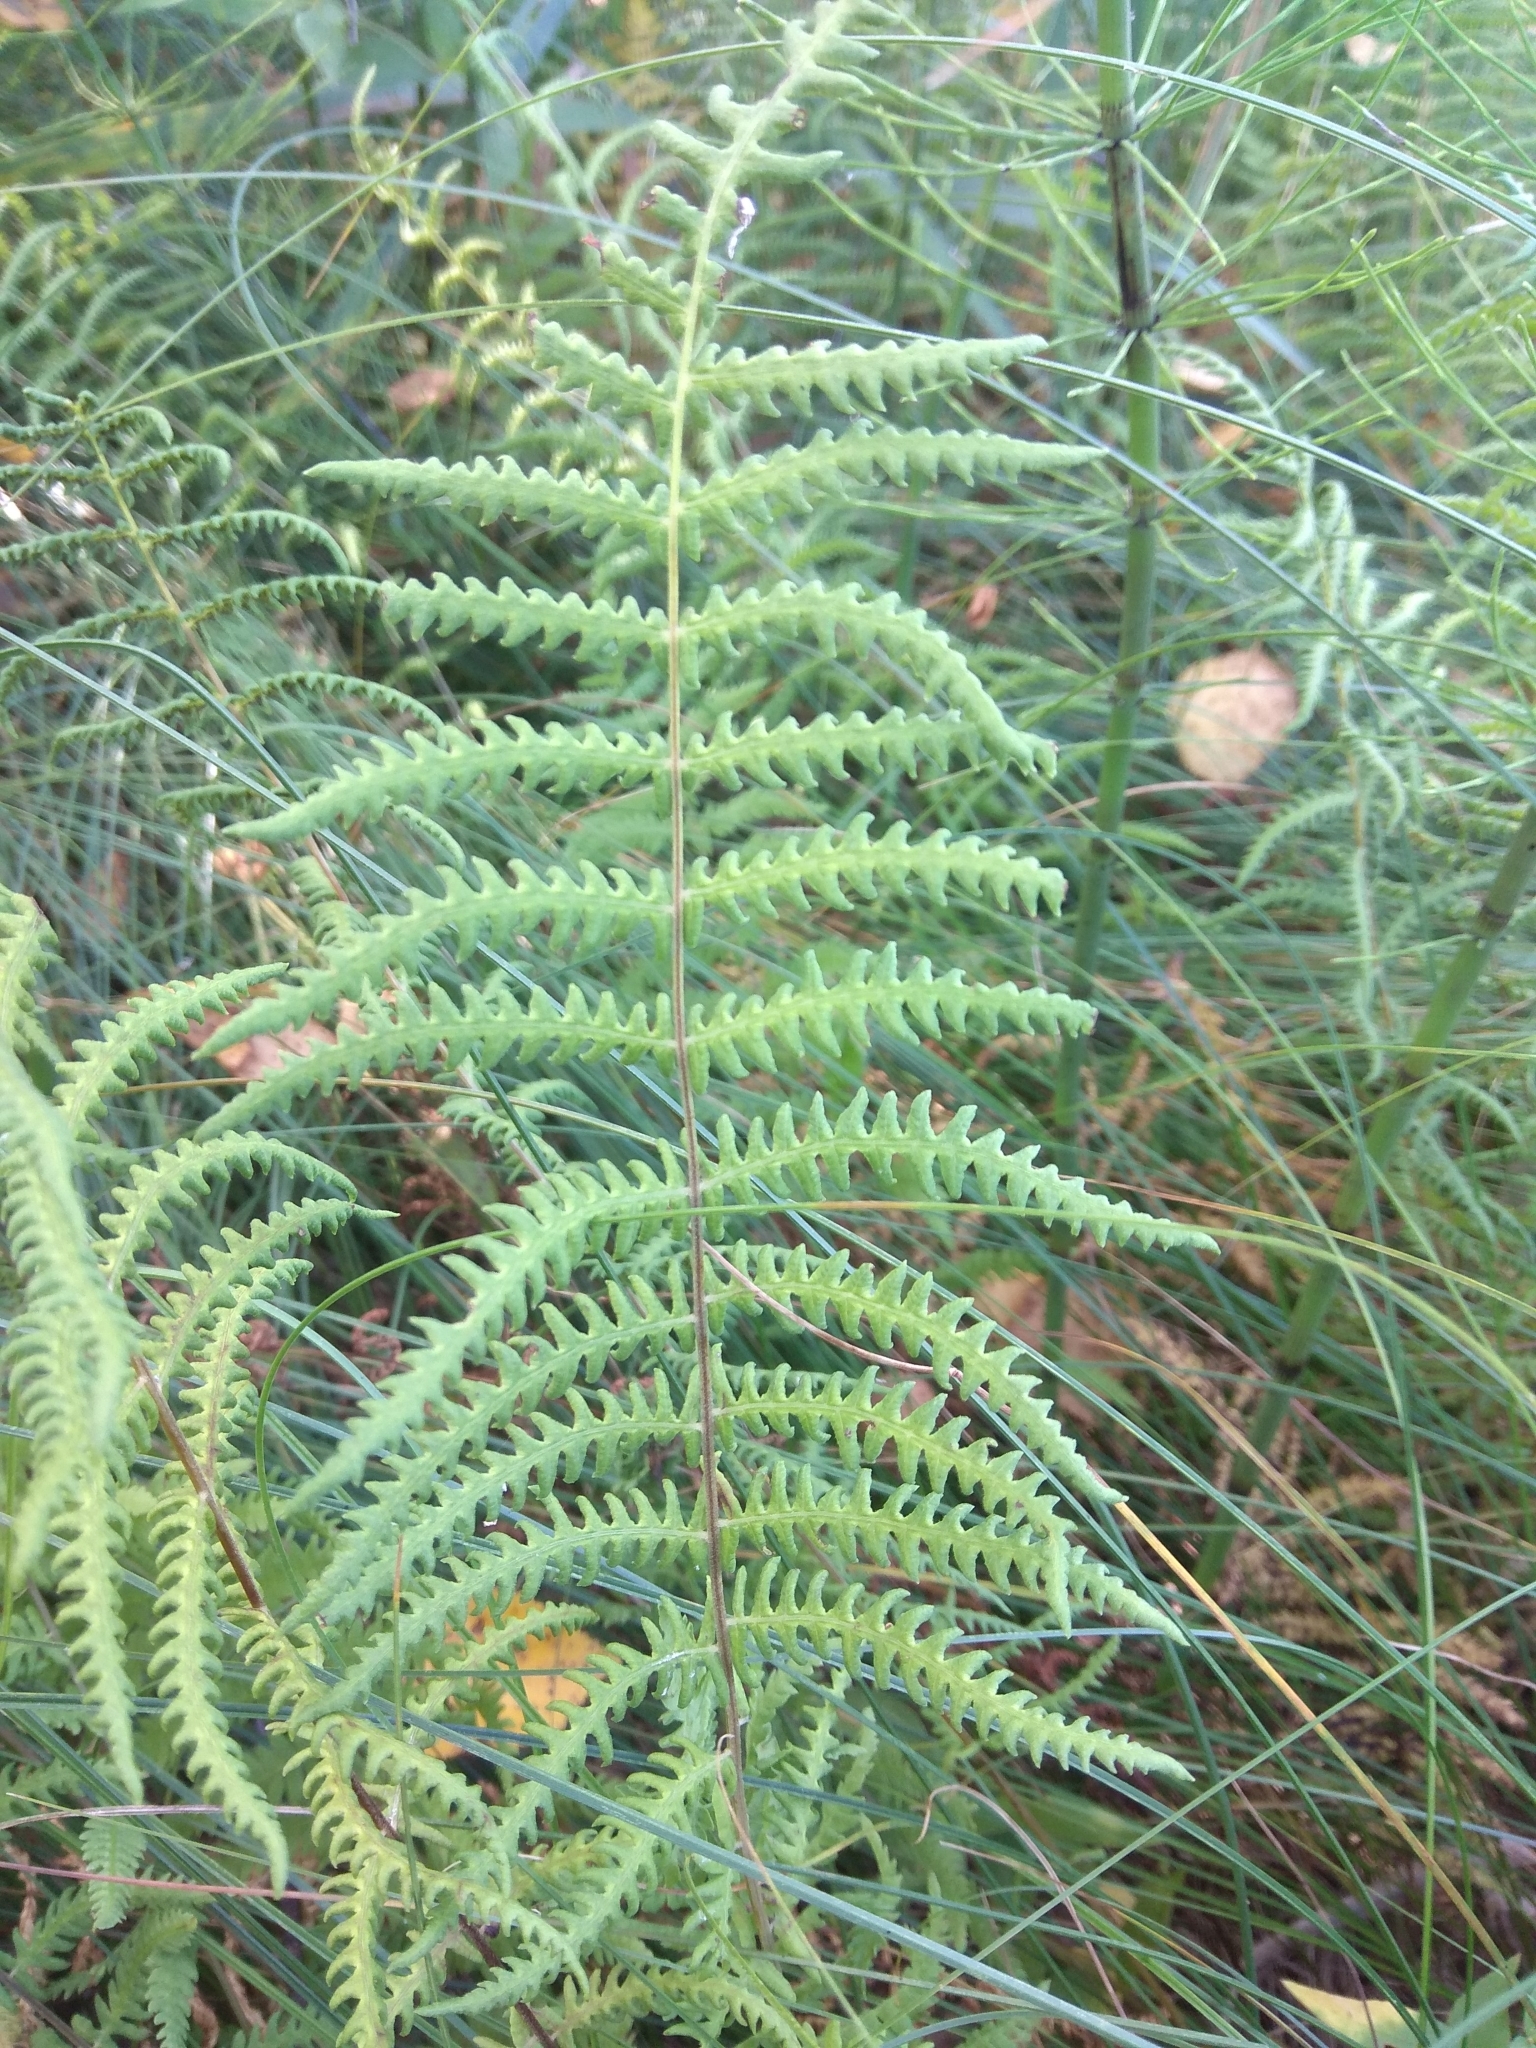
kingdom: Plantae
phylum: Tracheophyta
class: Polypodiopsida
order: Polypodiales
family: Thelypteridaceae
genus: Thelypteris
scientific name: Thelypteris palustris
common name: Marsh fern
